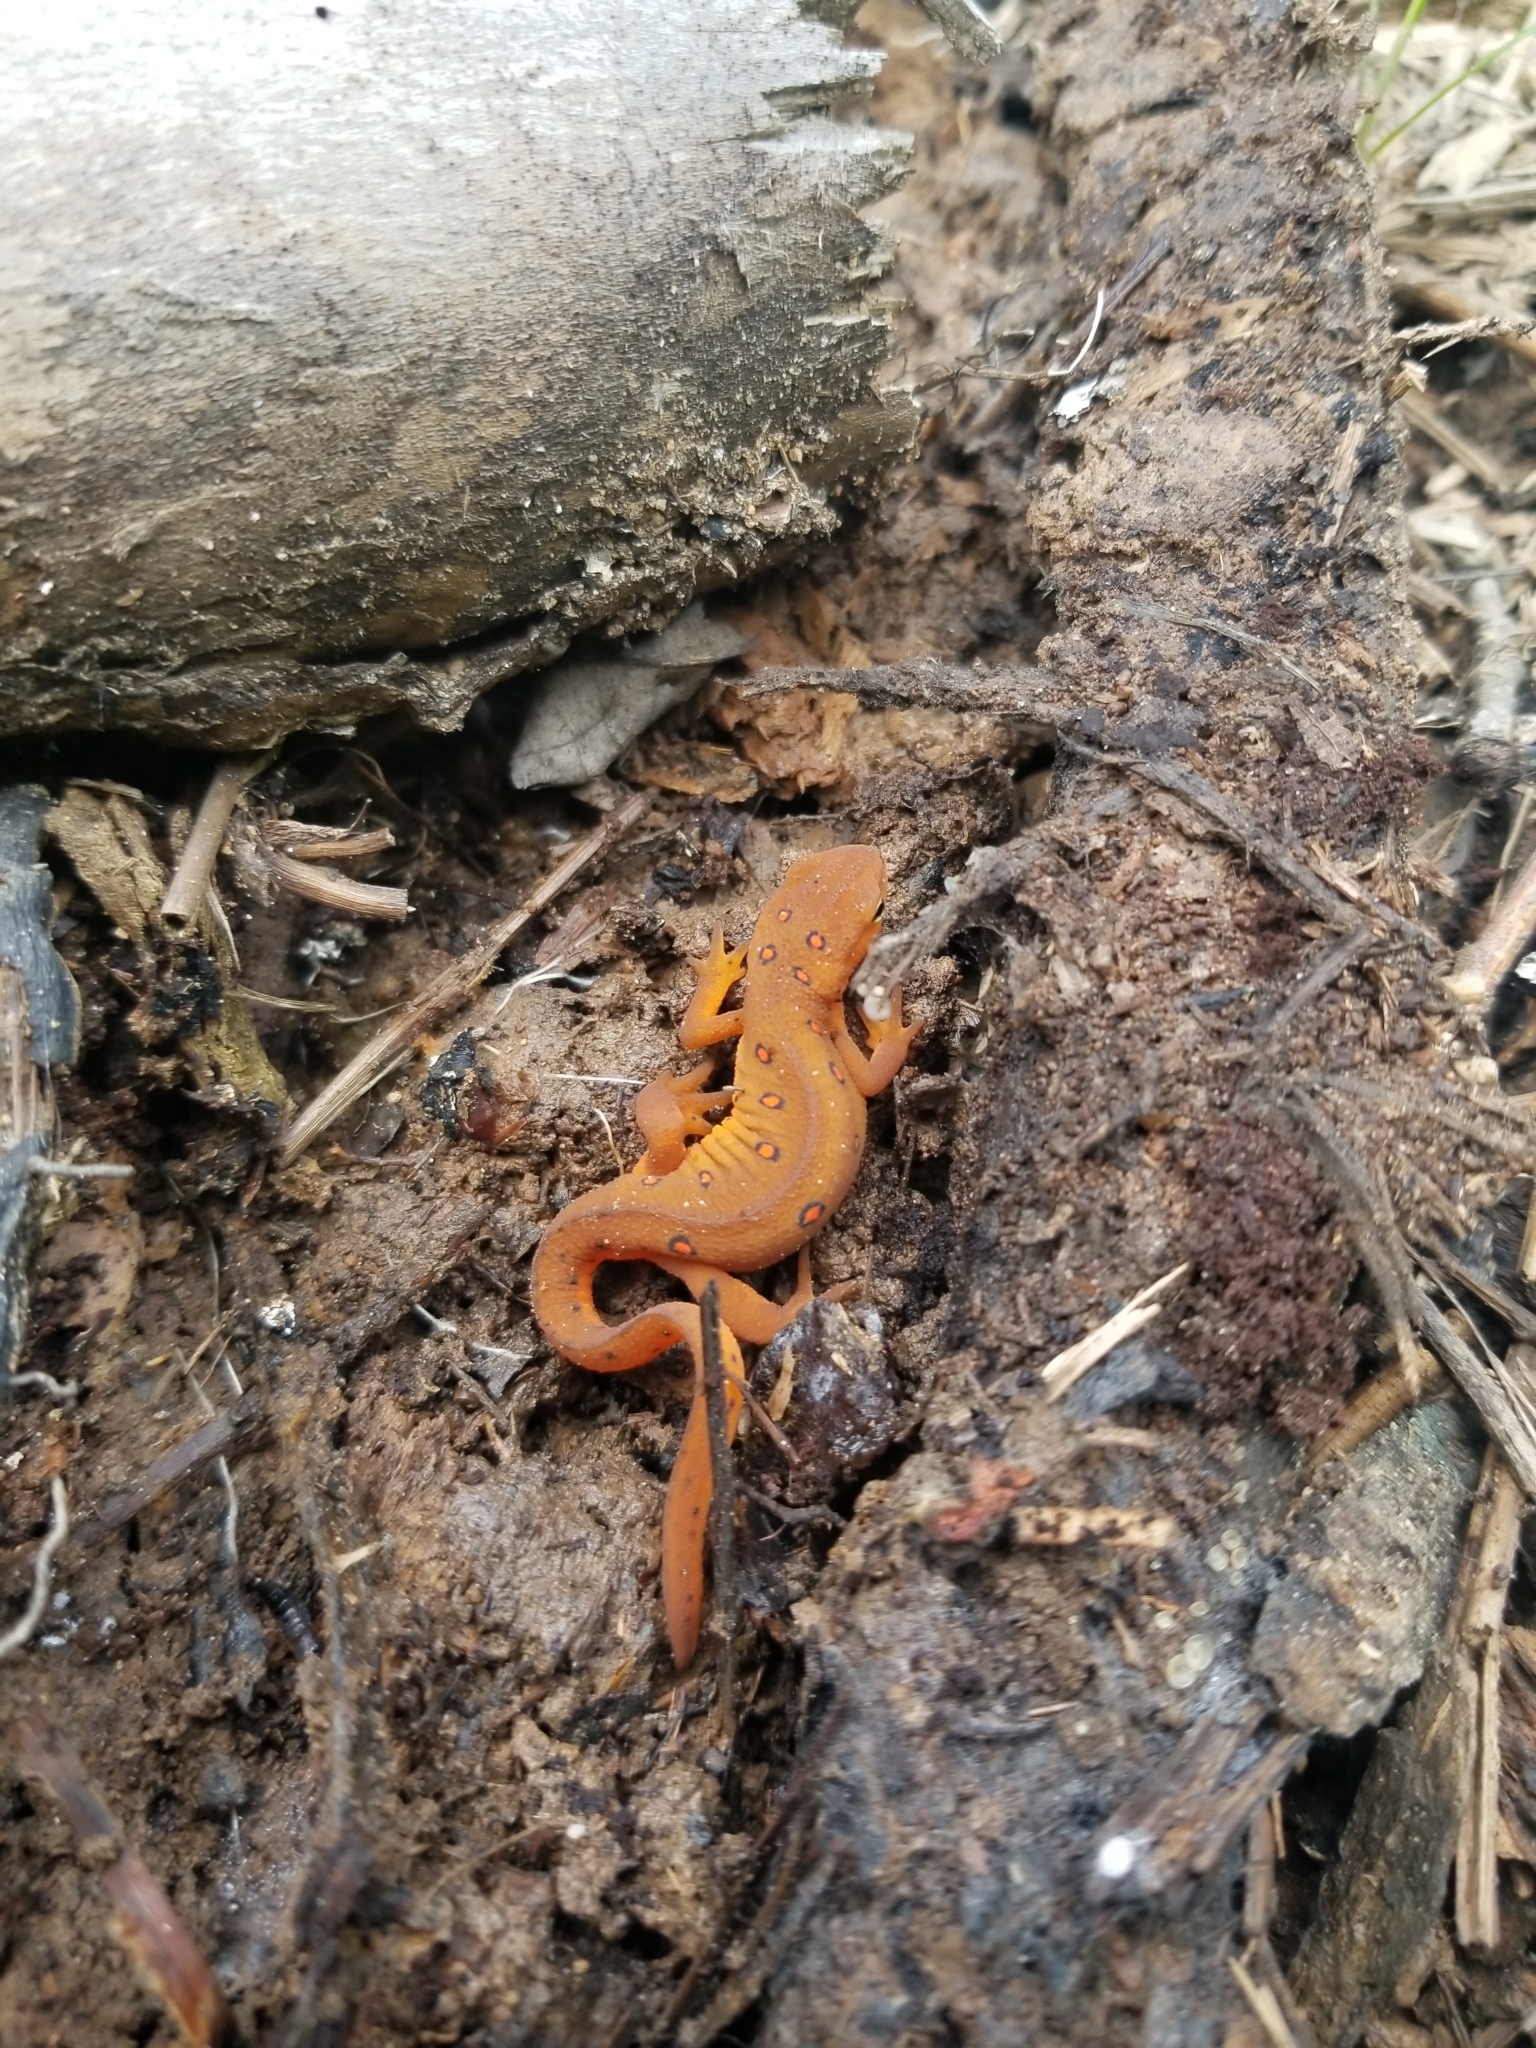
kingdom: Animalia
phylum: Chordata
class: Amphibia
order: Caudata
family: Salamandridae
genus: Notophthalmus
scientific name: Notophthalmus viridescens
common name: Eastern newt
